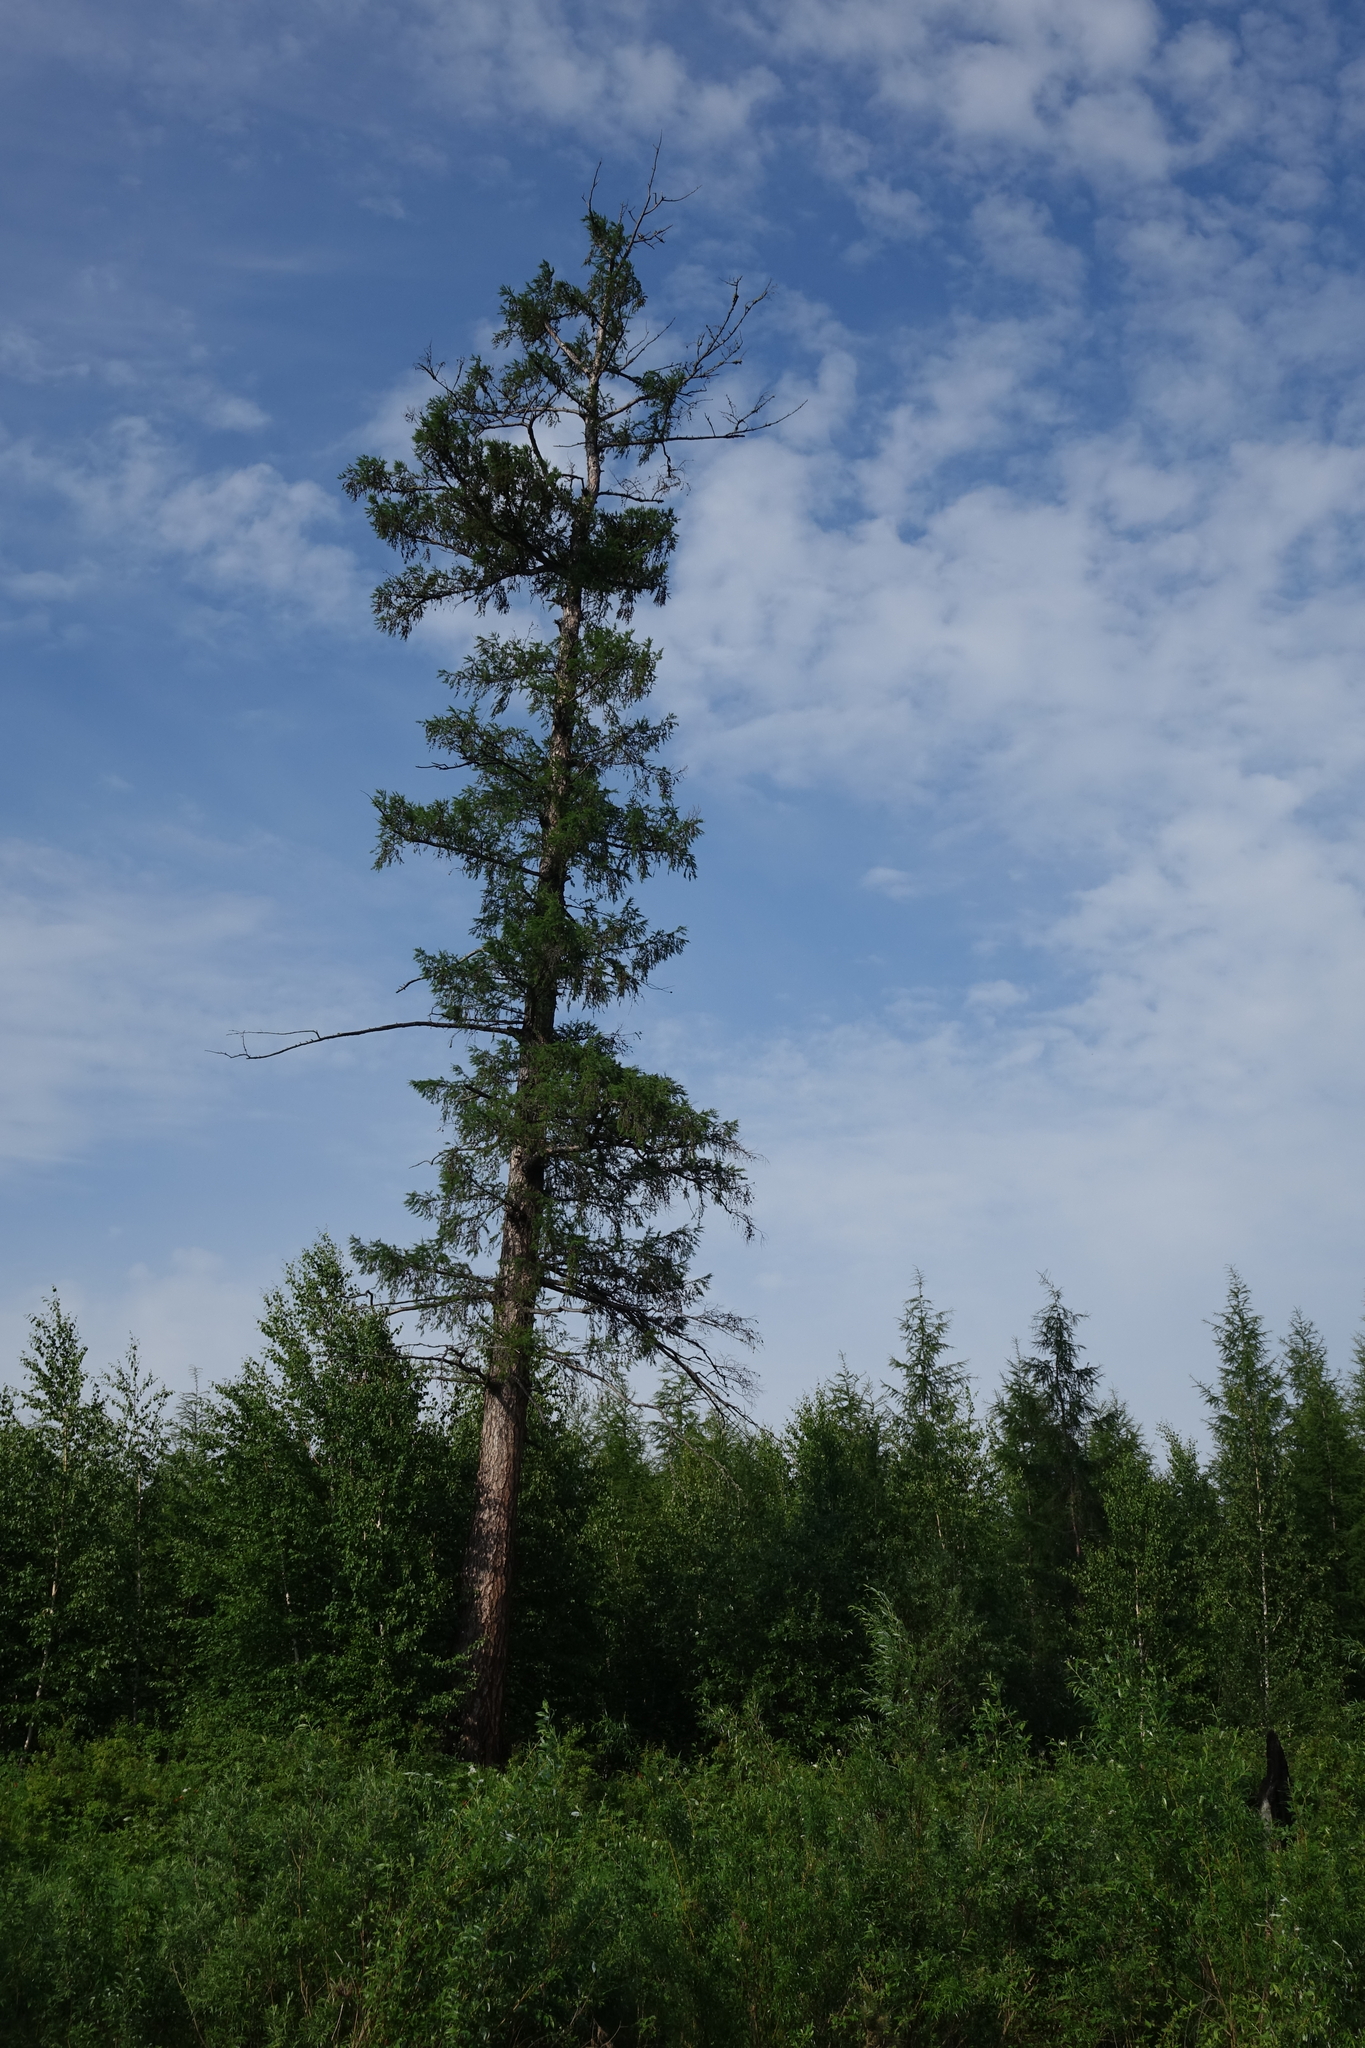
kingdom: Plantae
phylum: Tracheophyta
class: Pinopsida
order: Pinales
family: Pinaceae
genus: Larix
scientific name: Larix gmelinii
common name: Dahurian larch
